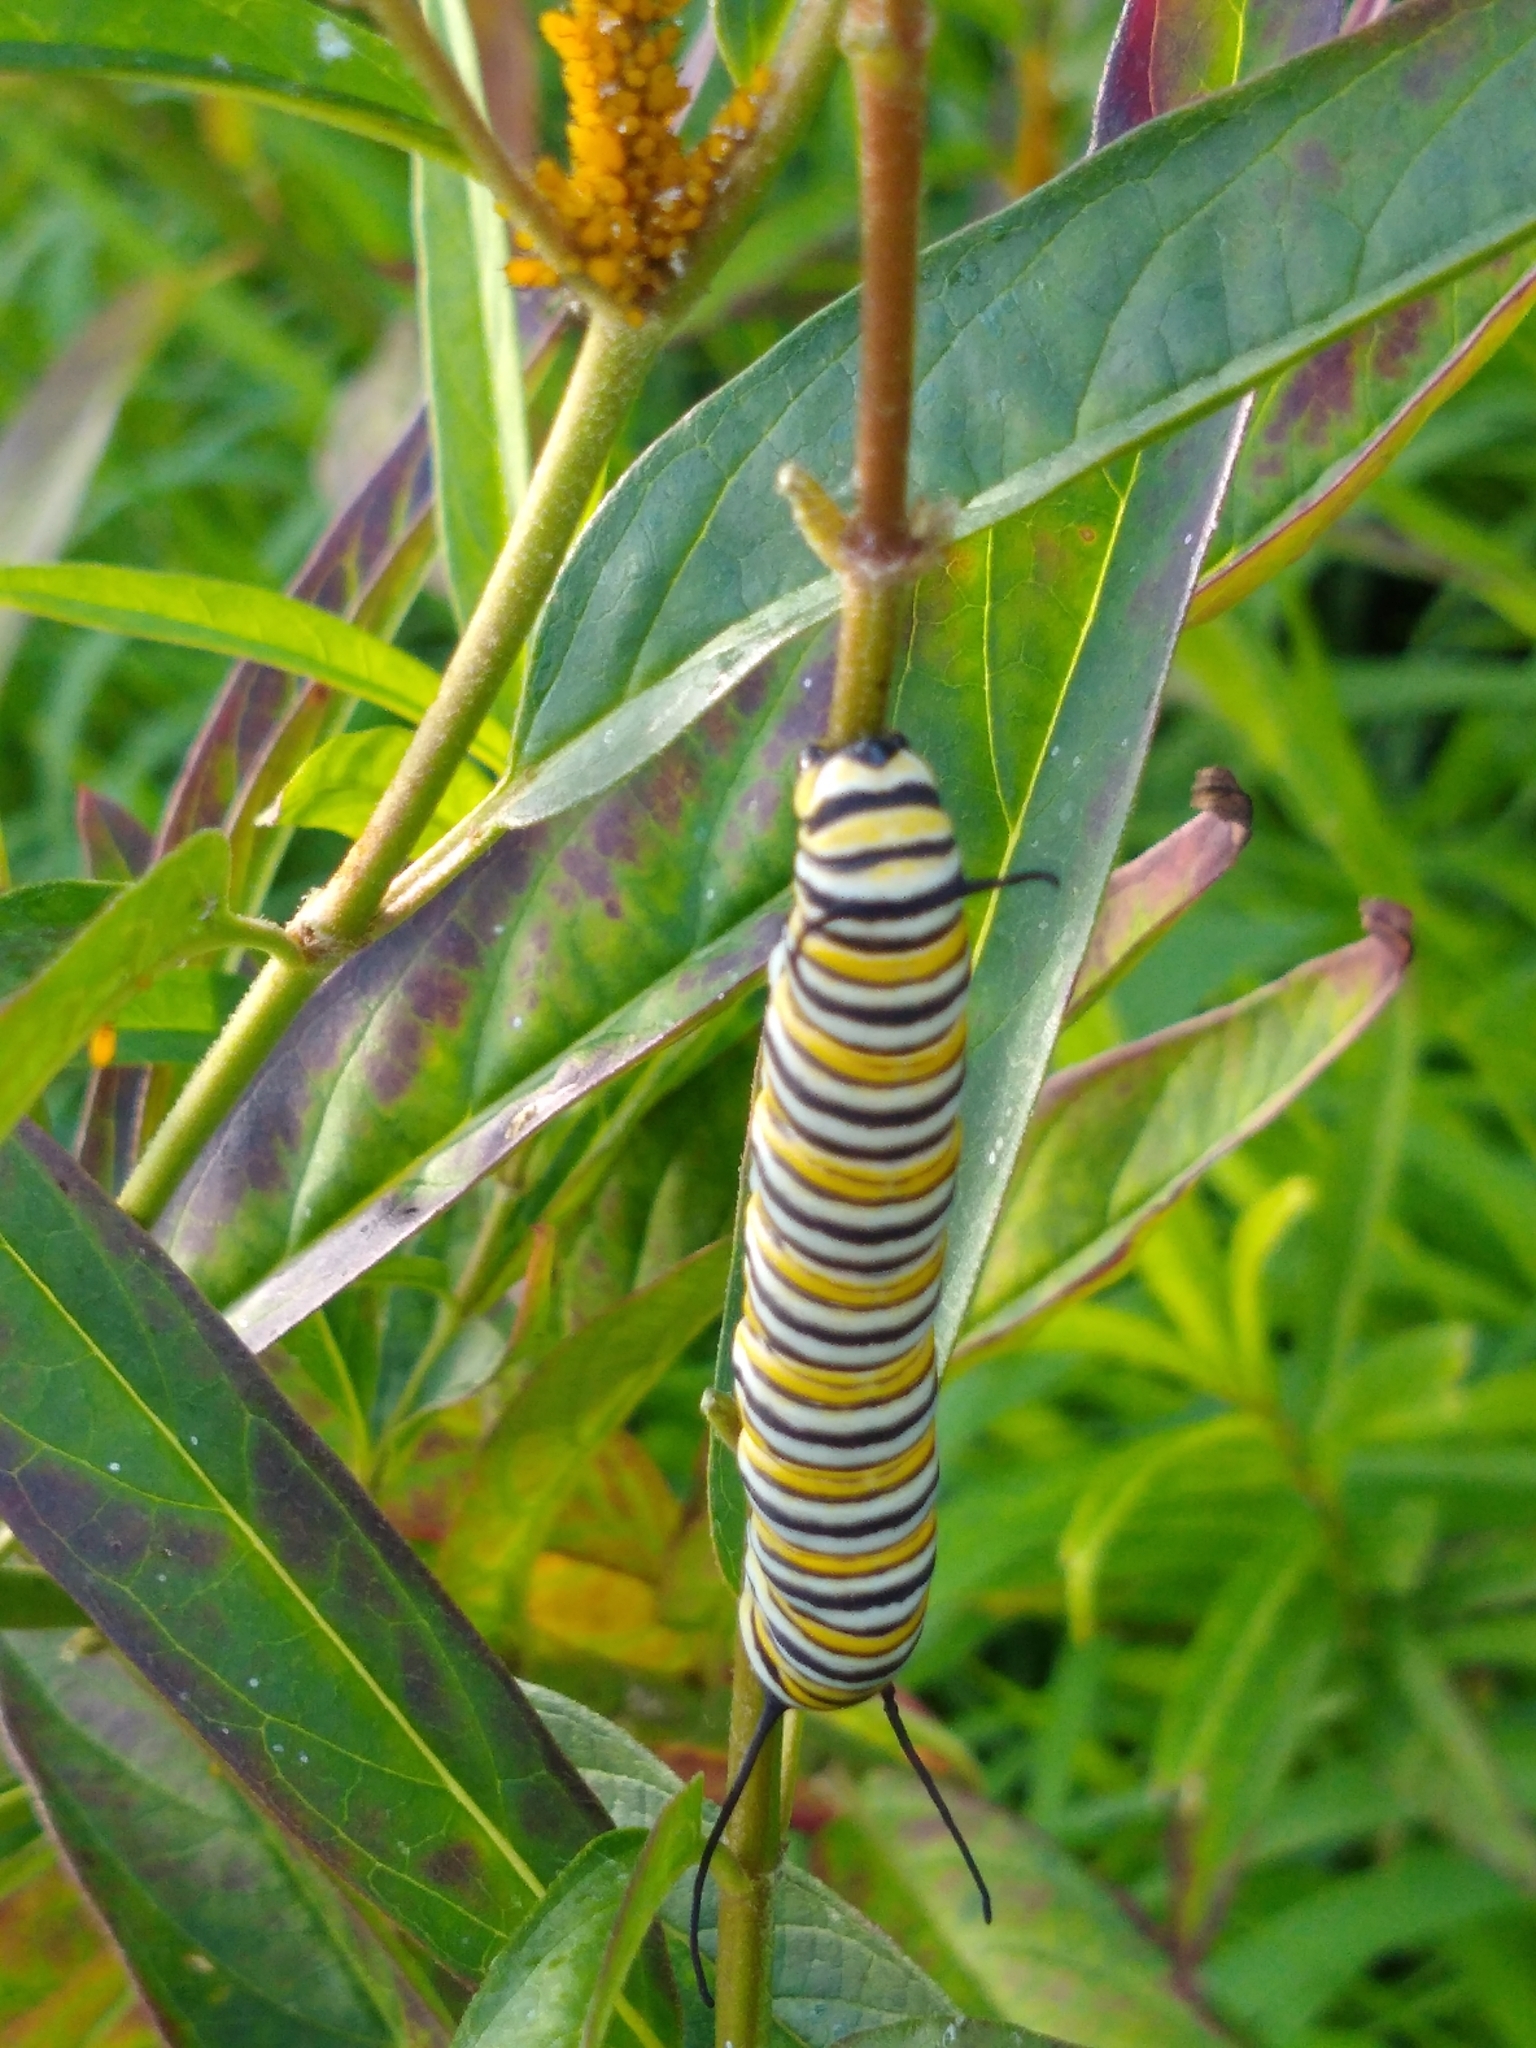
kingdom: Animalia
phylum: Arthropoda
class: Insecta
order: Lepidoptera
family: Nymphalidae
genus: Danaus
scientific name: Danaus plexippus
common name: Monarch
